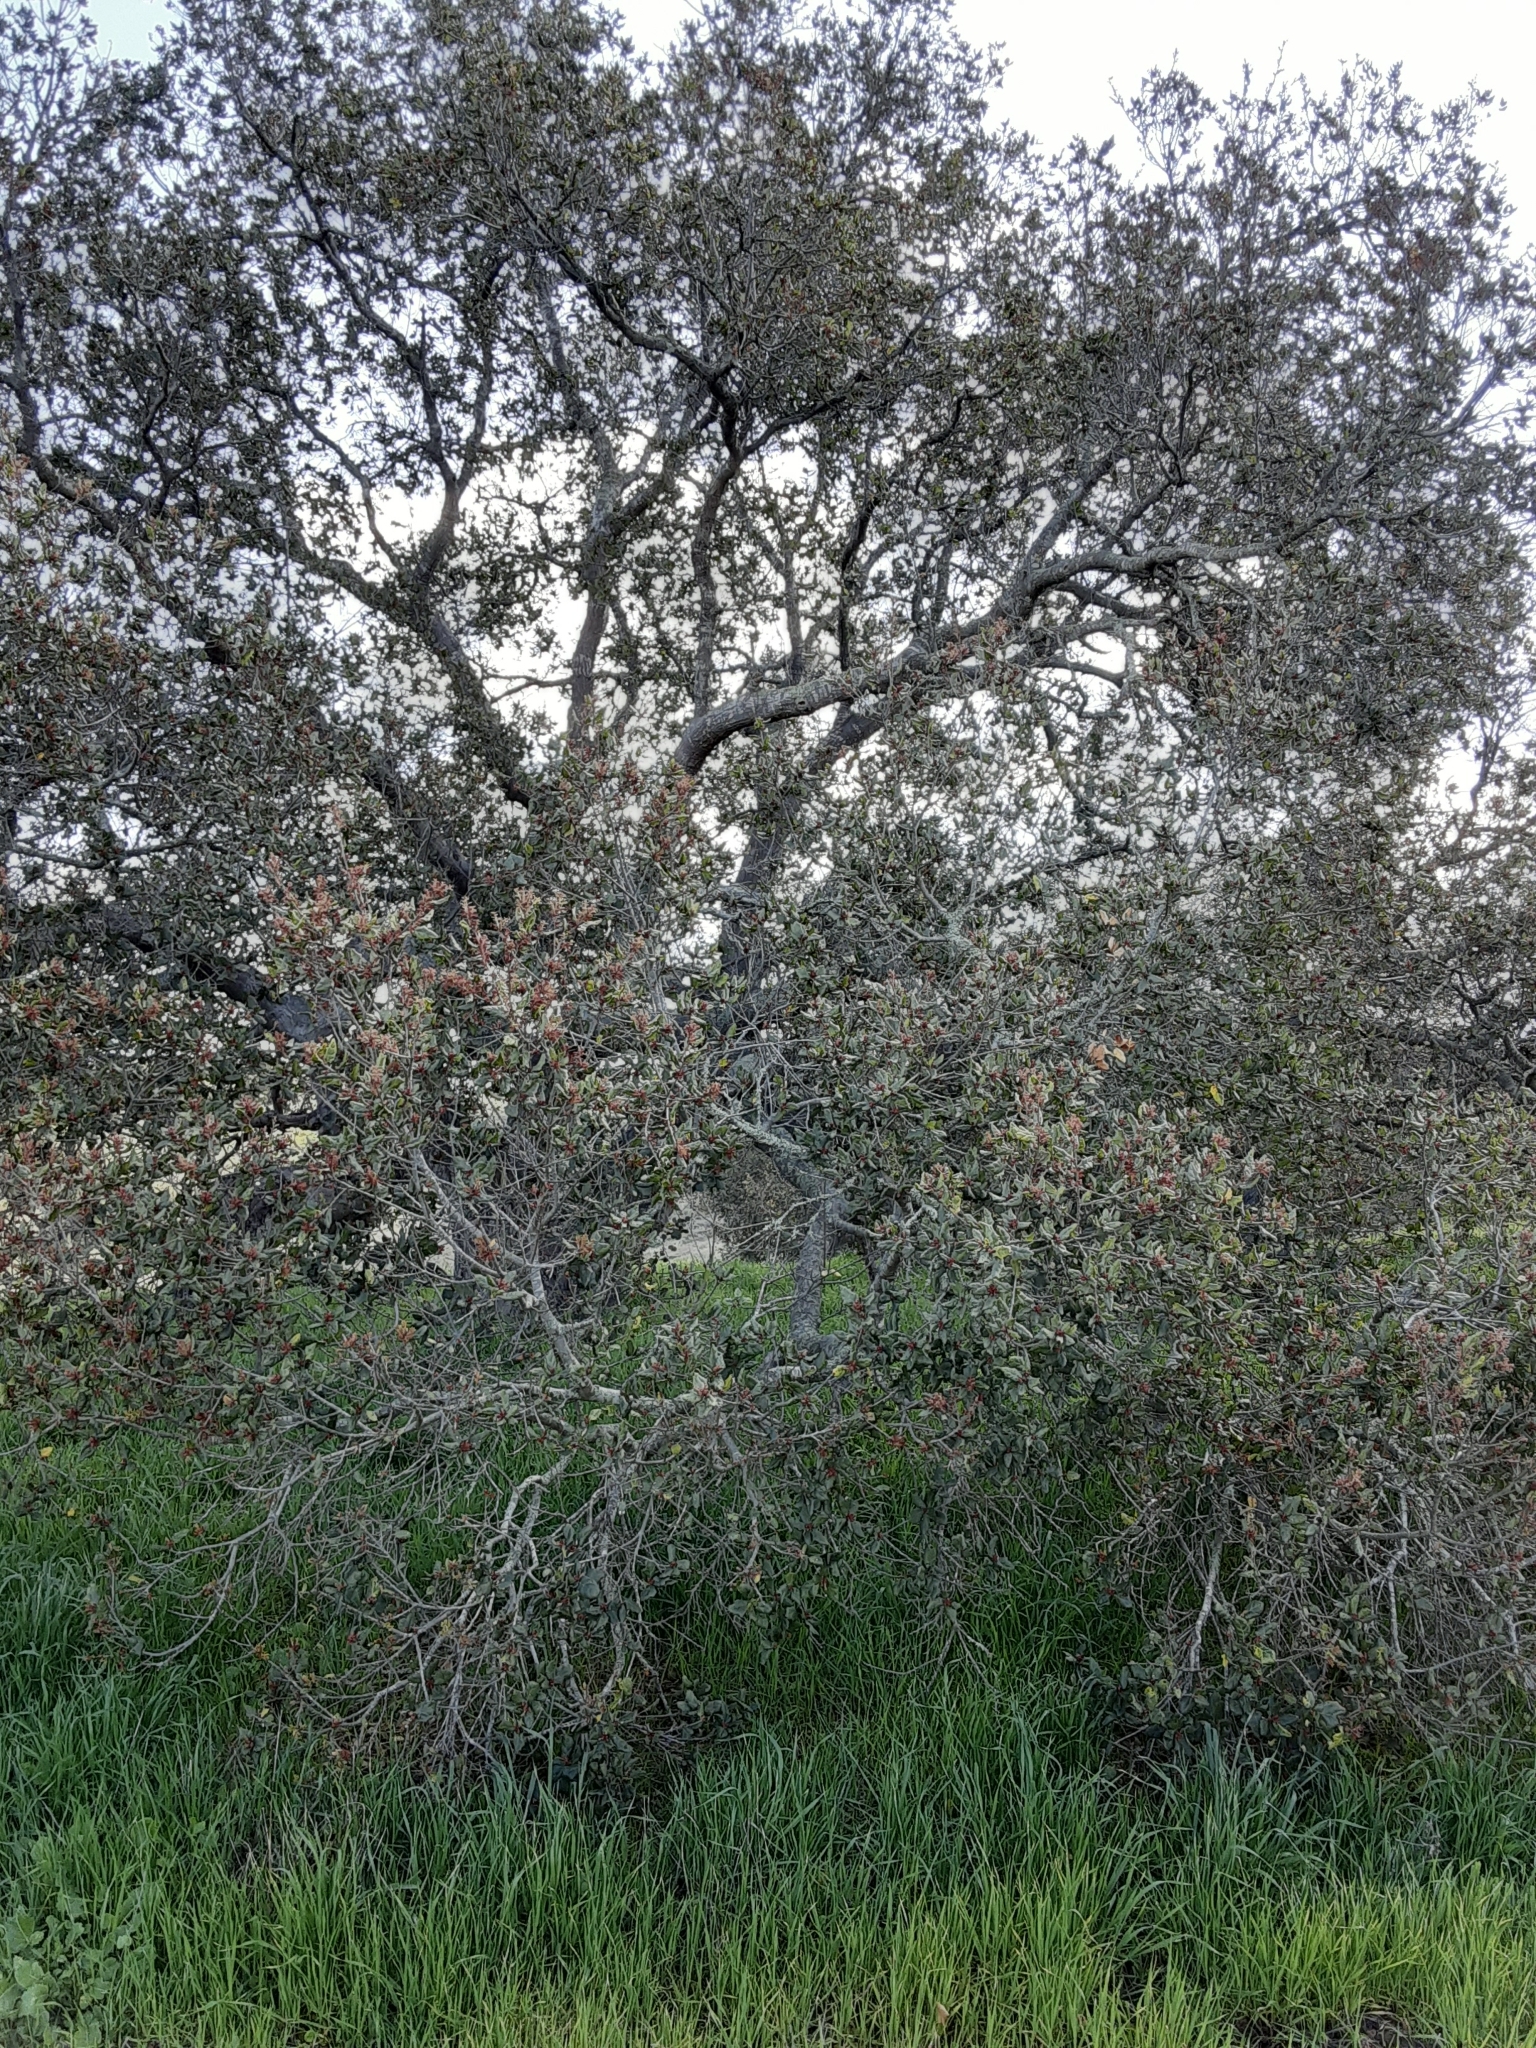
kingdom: Plantae
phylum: Tracheophyta
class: Magnoliopsida
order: Fagales
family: Fagaceae
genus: Quercus
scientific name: Quercus agrifolia
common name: California live oak
